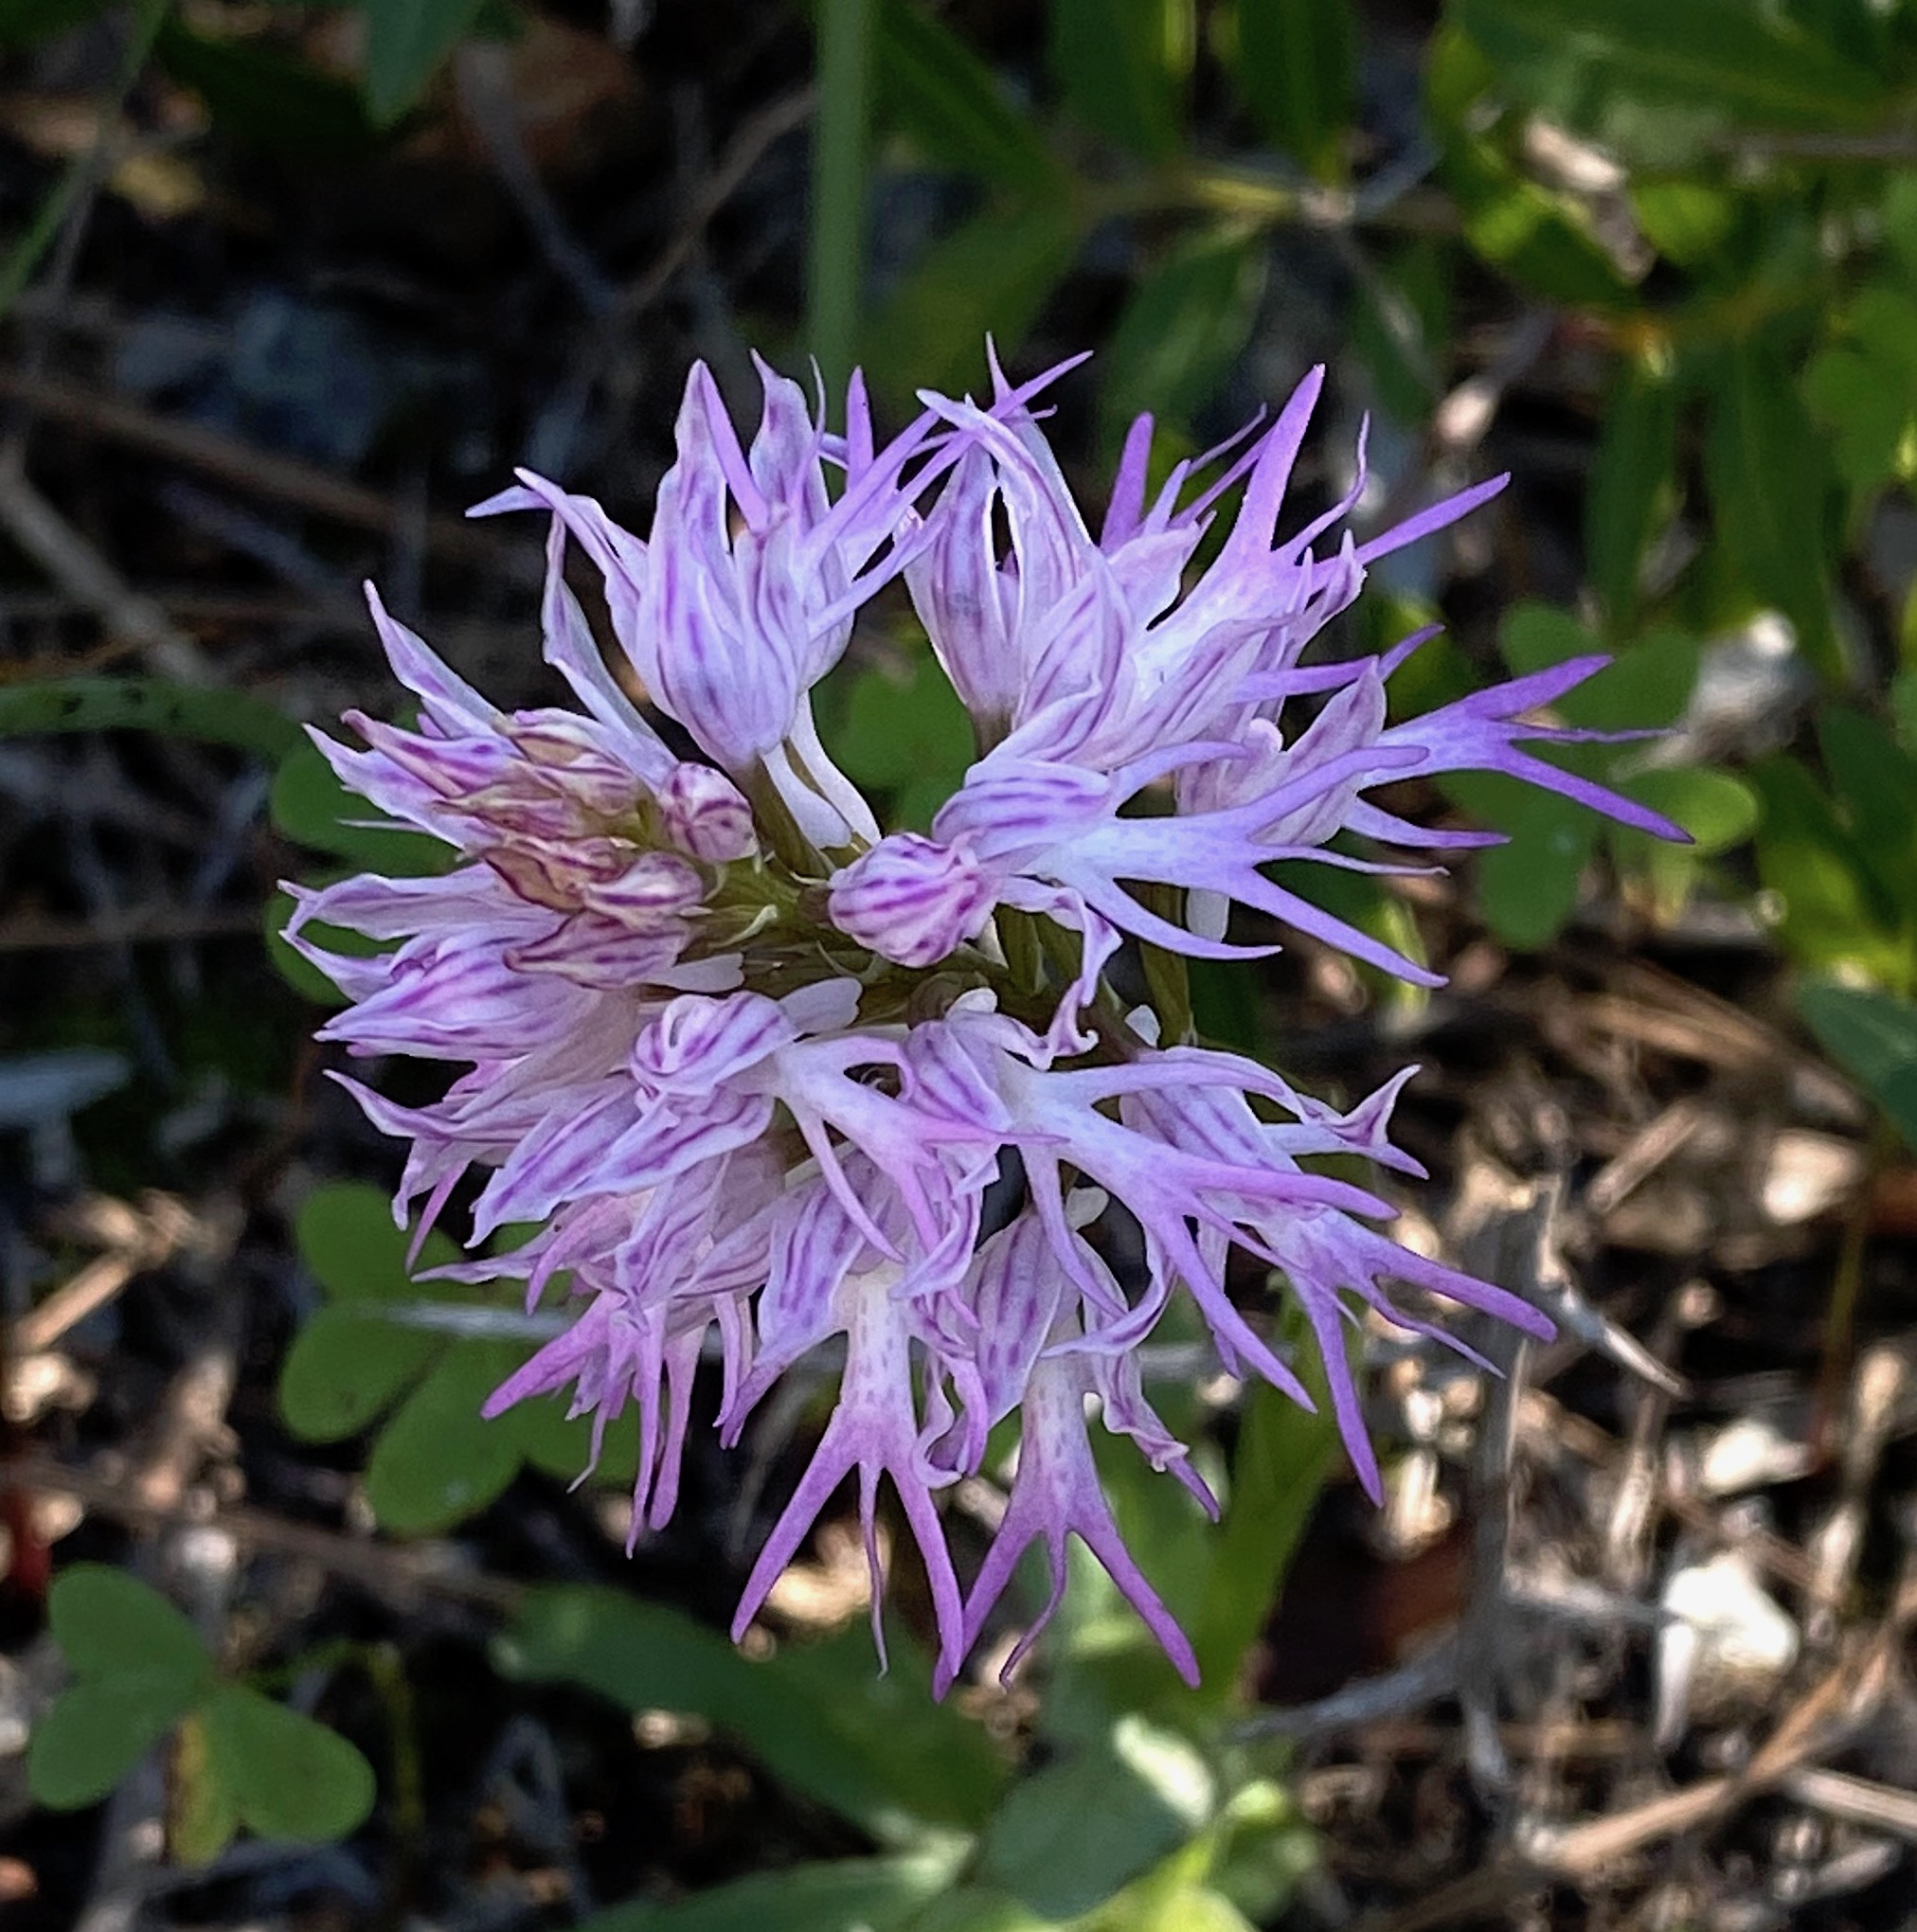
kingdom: Plantae
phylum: Tracheophyta
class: Liliopsida
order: Asparagales
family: Orchidaceae
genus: Orchis
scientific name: Orchis italica
